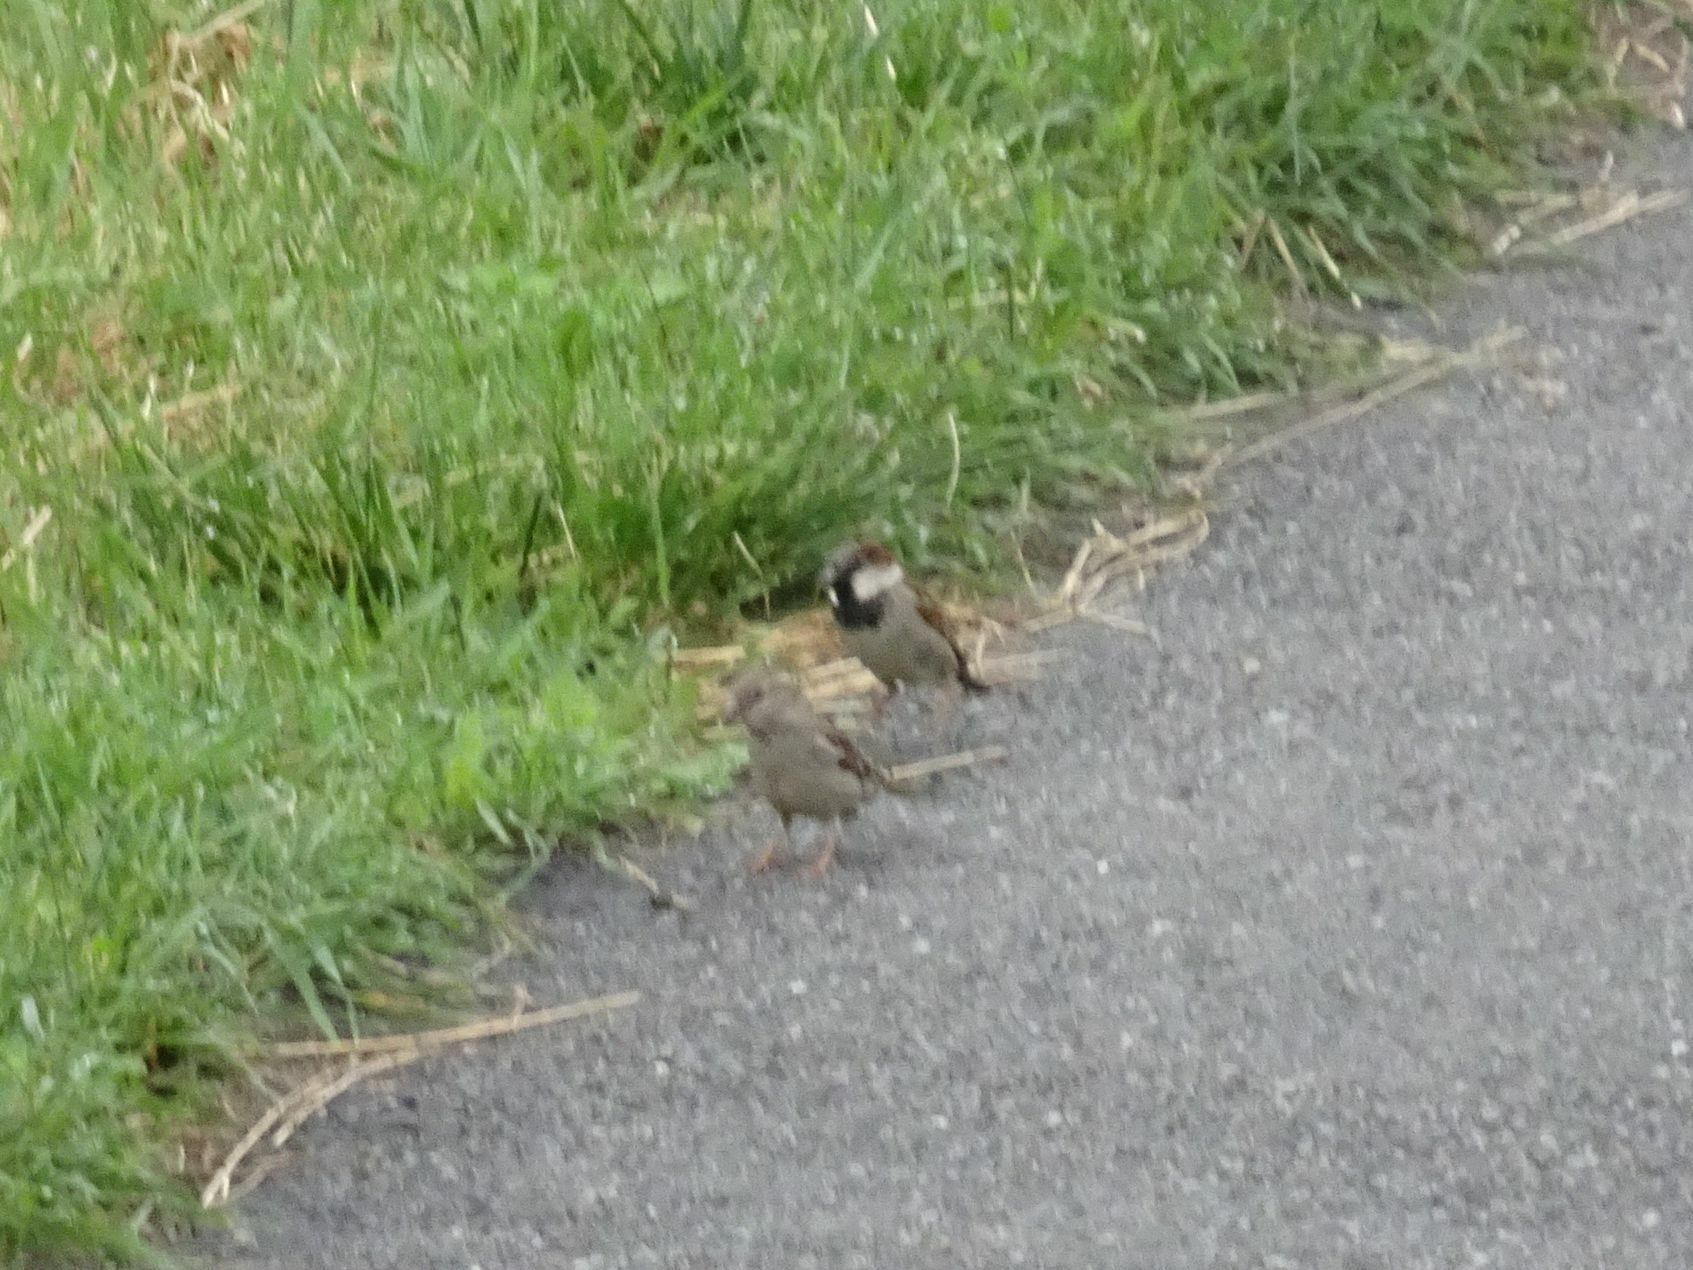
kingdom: Animalia
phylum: Chordata
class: Aves
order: Passeriformes
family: Passeridae
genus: Passer
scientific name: Passer domesticus
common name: House sparrow
